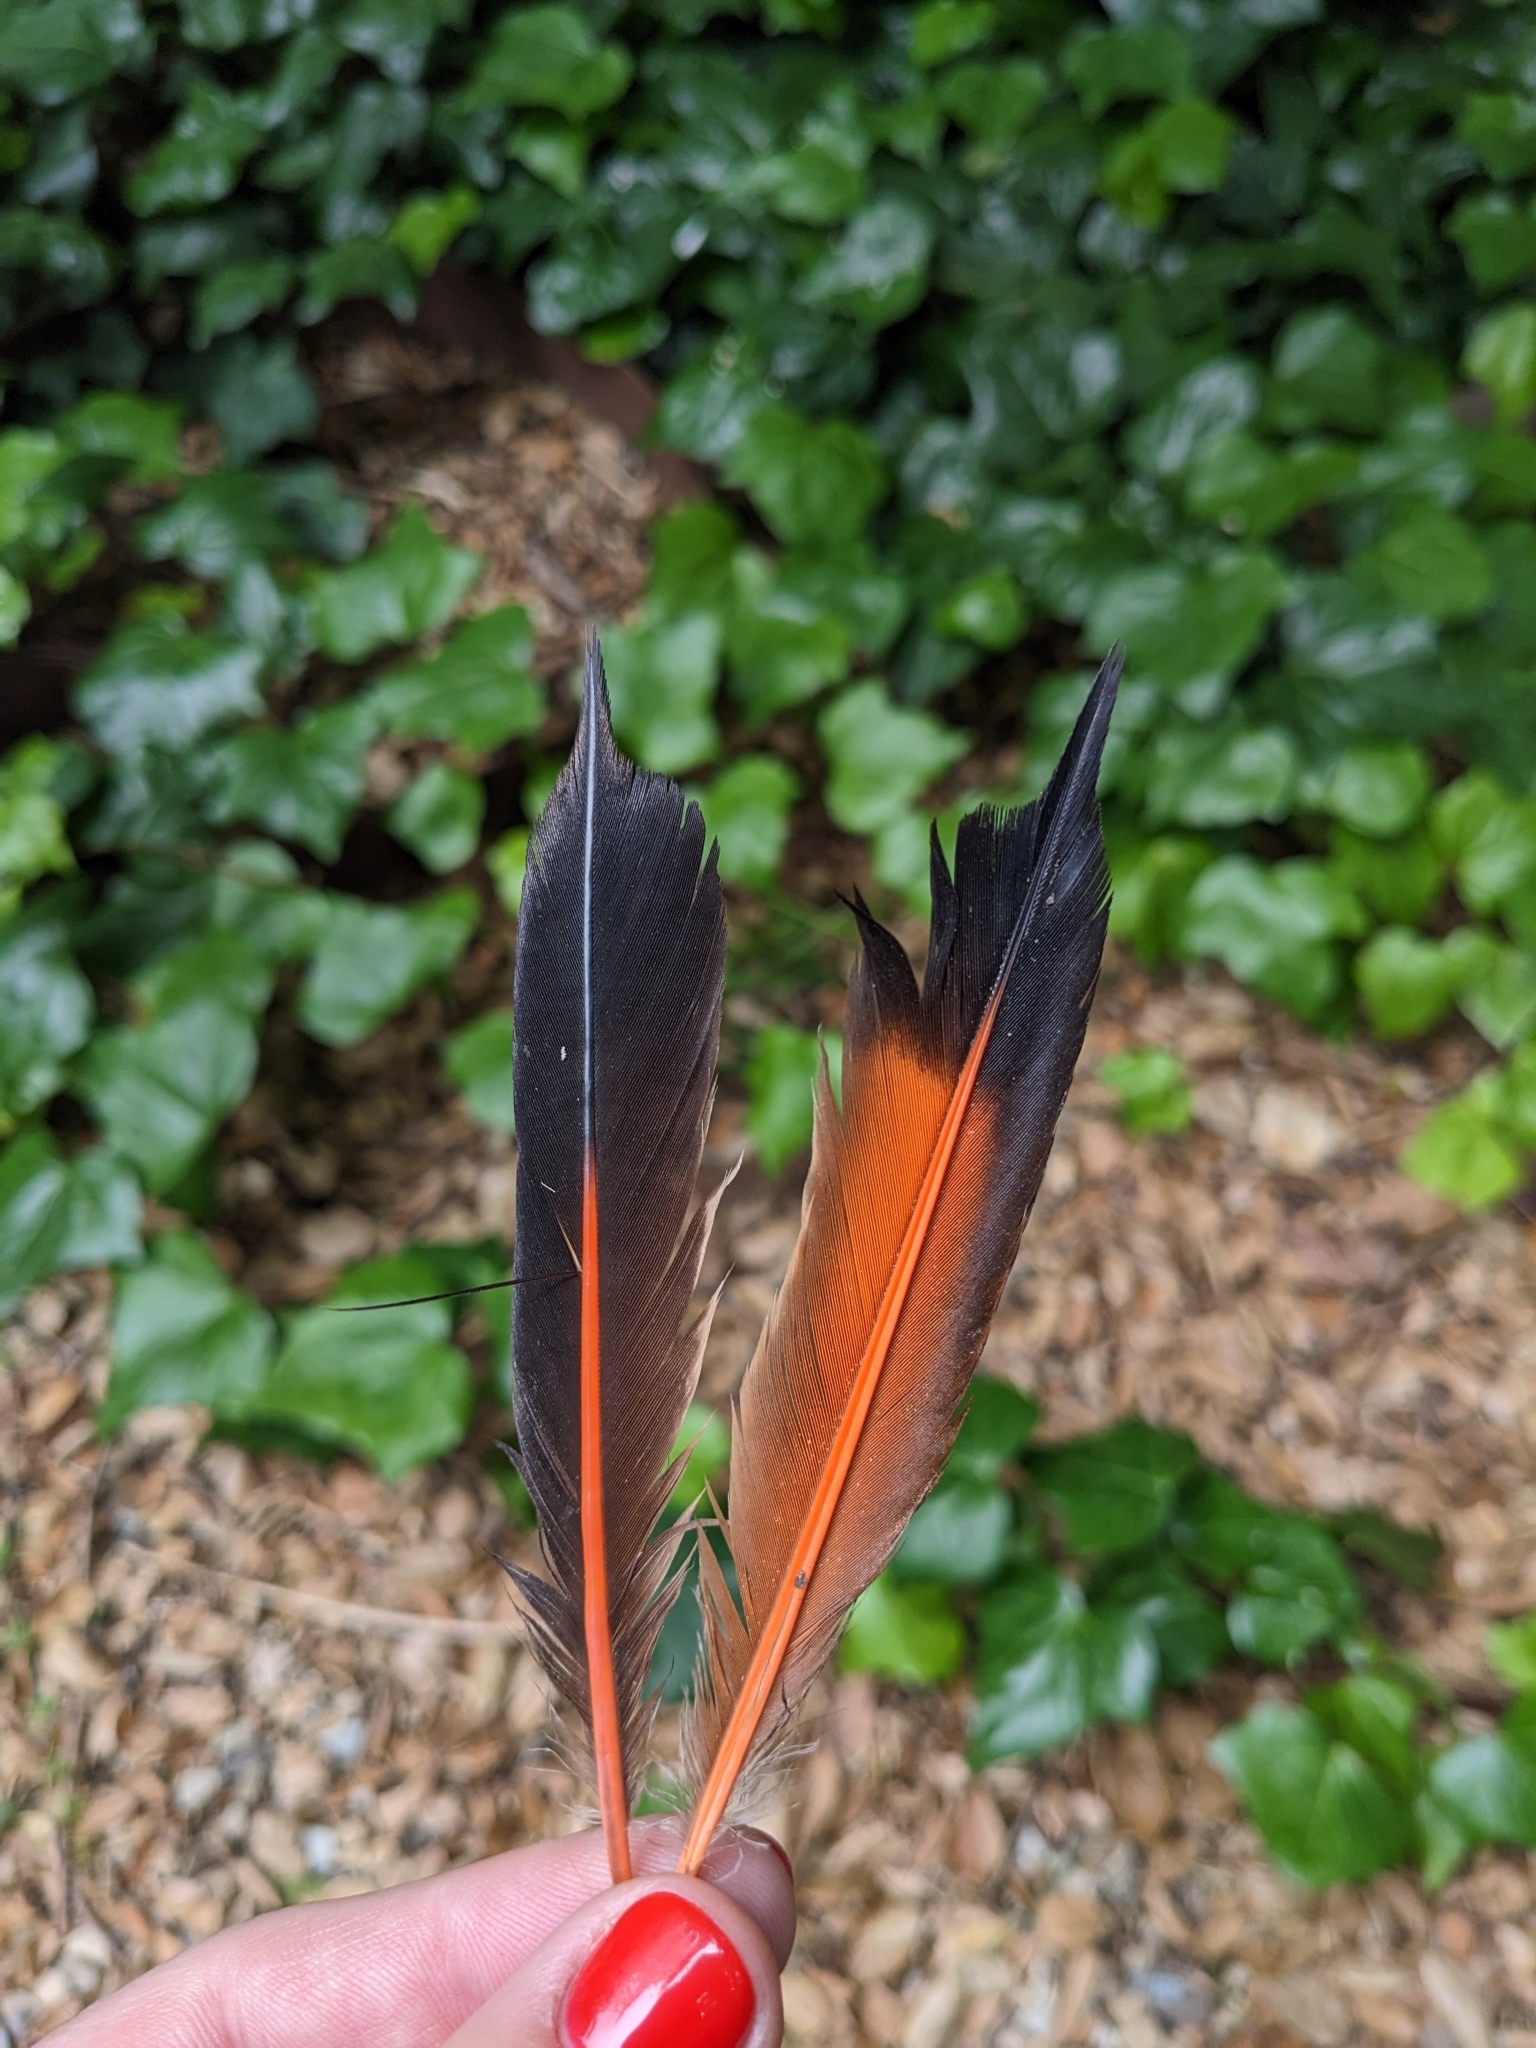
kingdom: Animalia
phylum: Chordata
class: Aves
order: Piciformes
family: Picidae
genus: Colaptes
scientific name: Colaptes auratus
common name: Northern flicker
